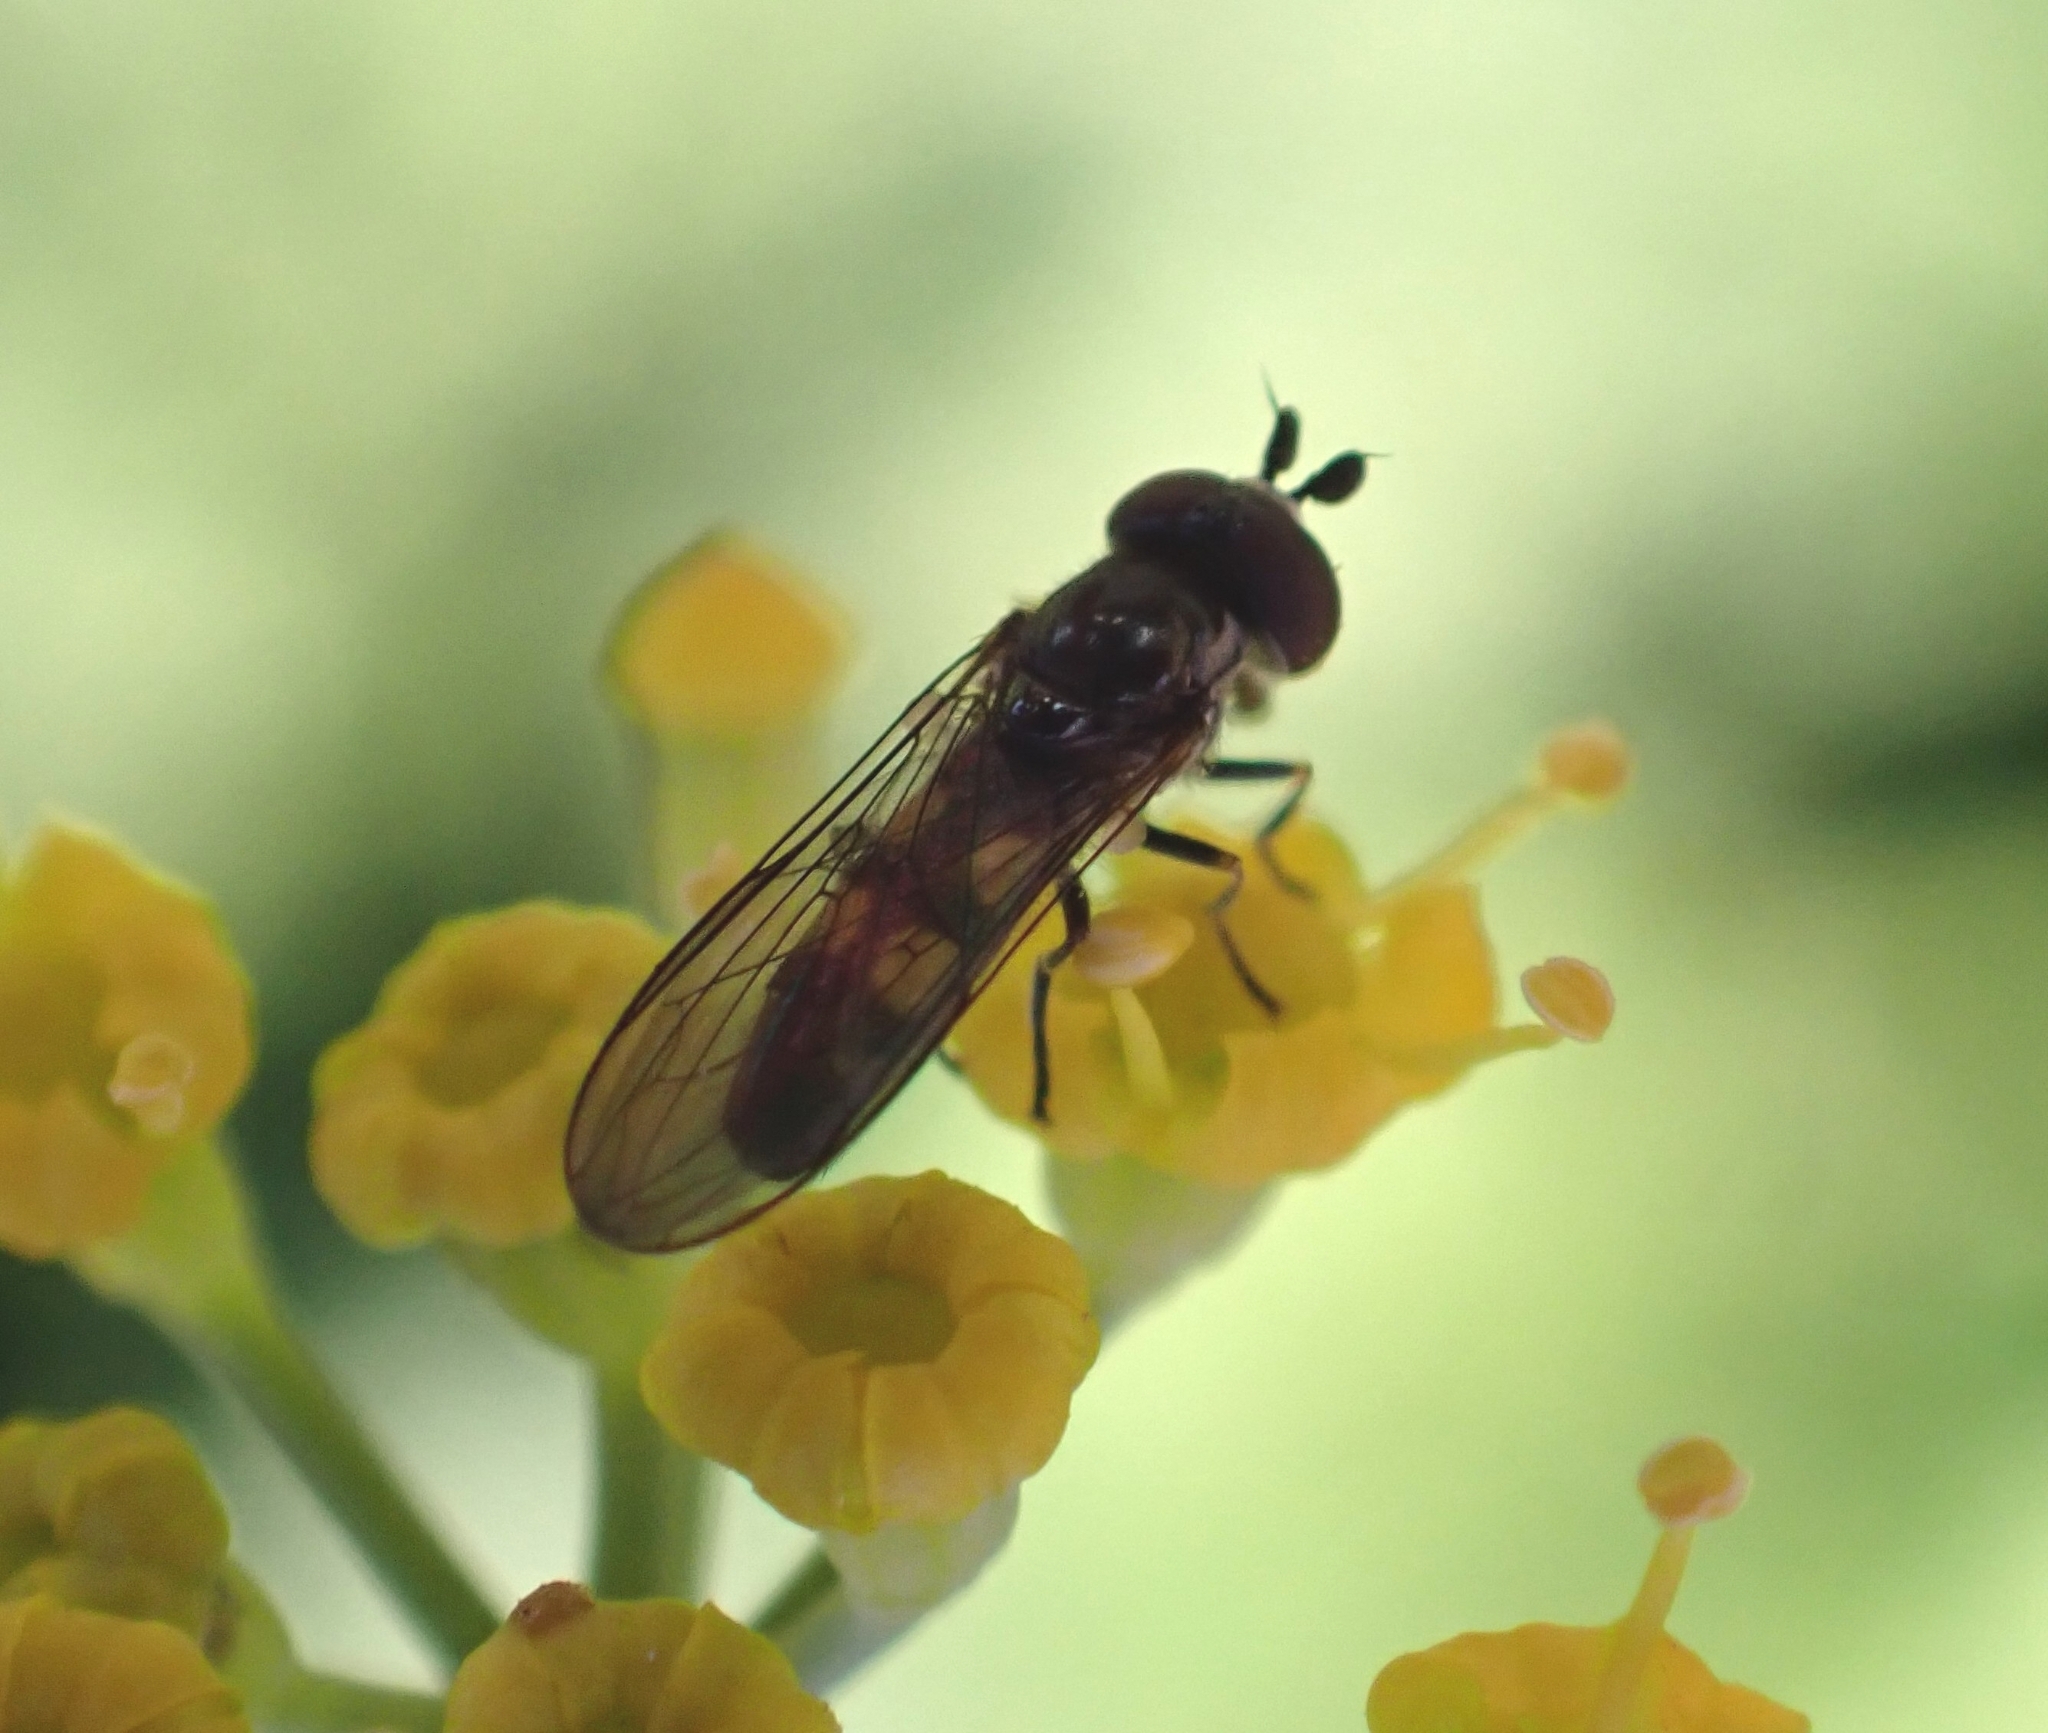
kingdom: Animalia
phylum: Arthropoda
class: Insecta
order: Diptera
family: Syrphidae
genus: Chamaesyrphus
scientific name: Chamaesyrphus nigrifacies
